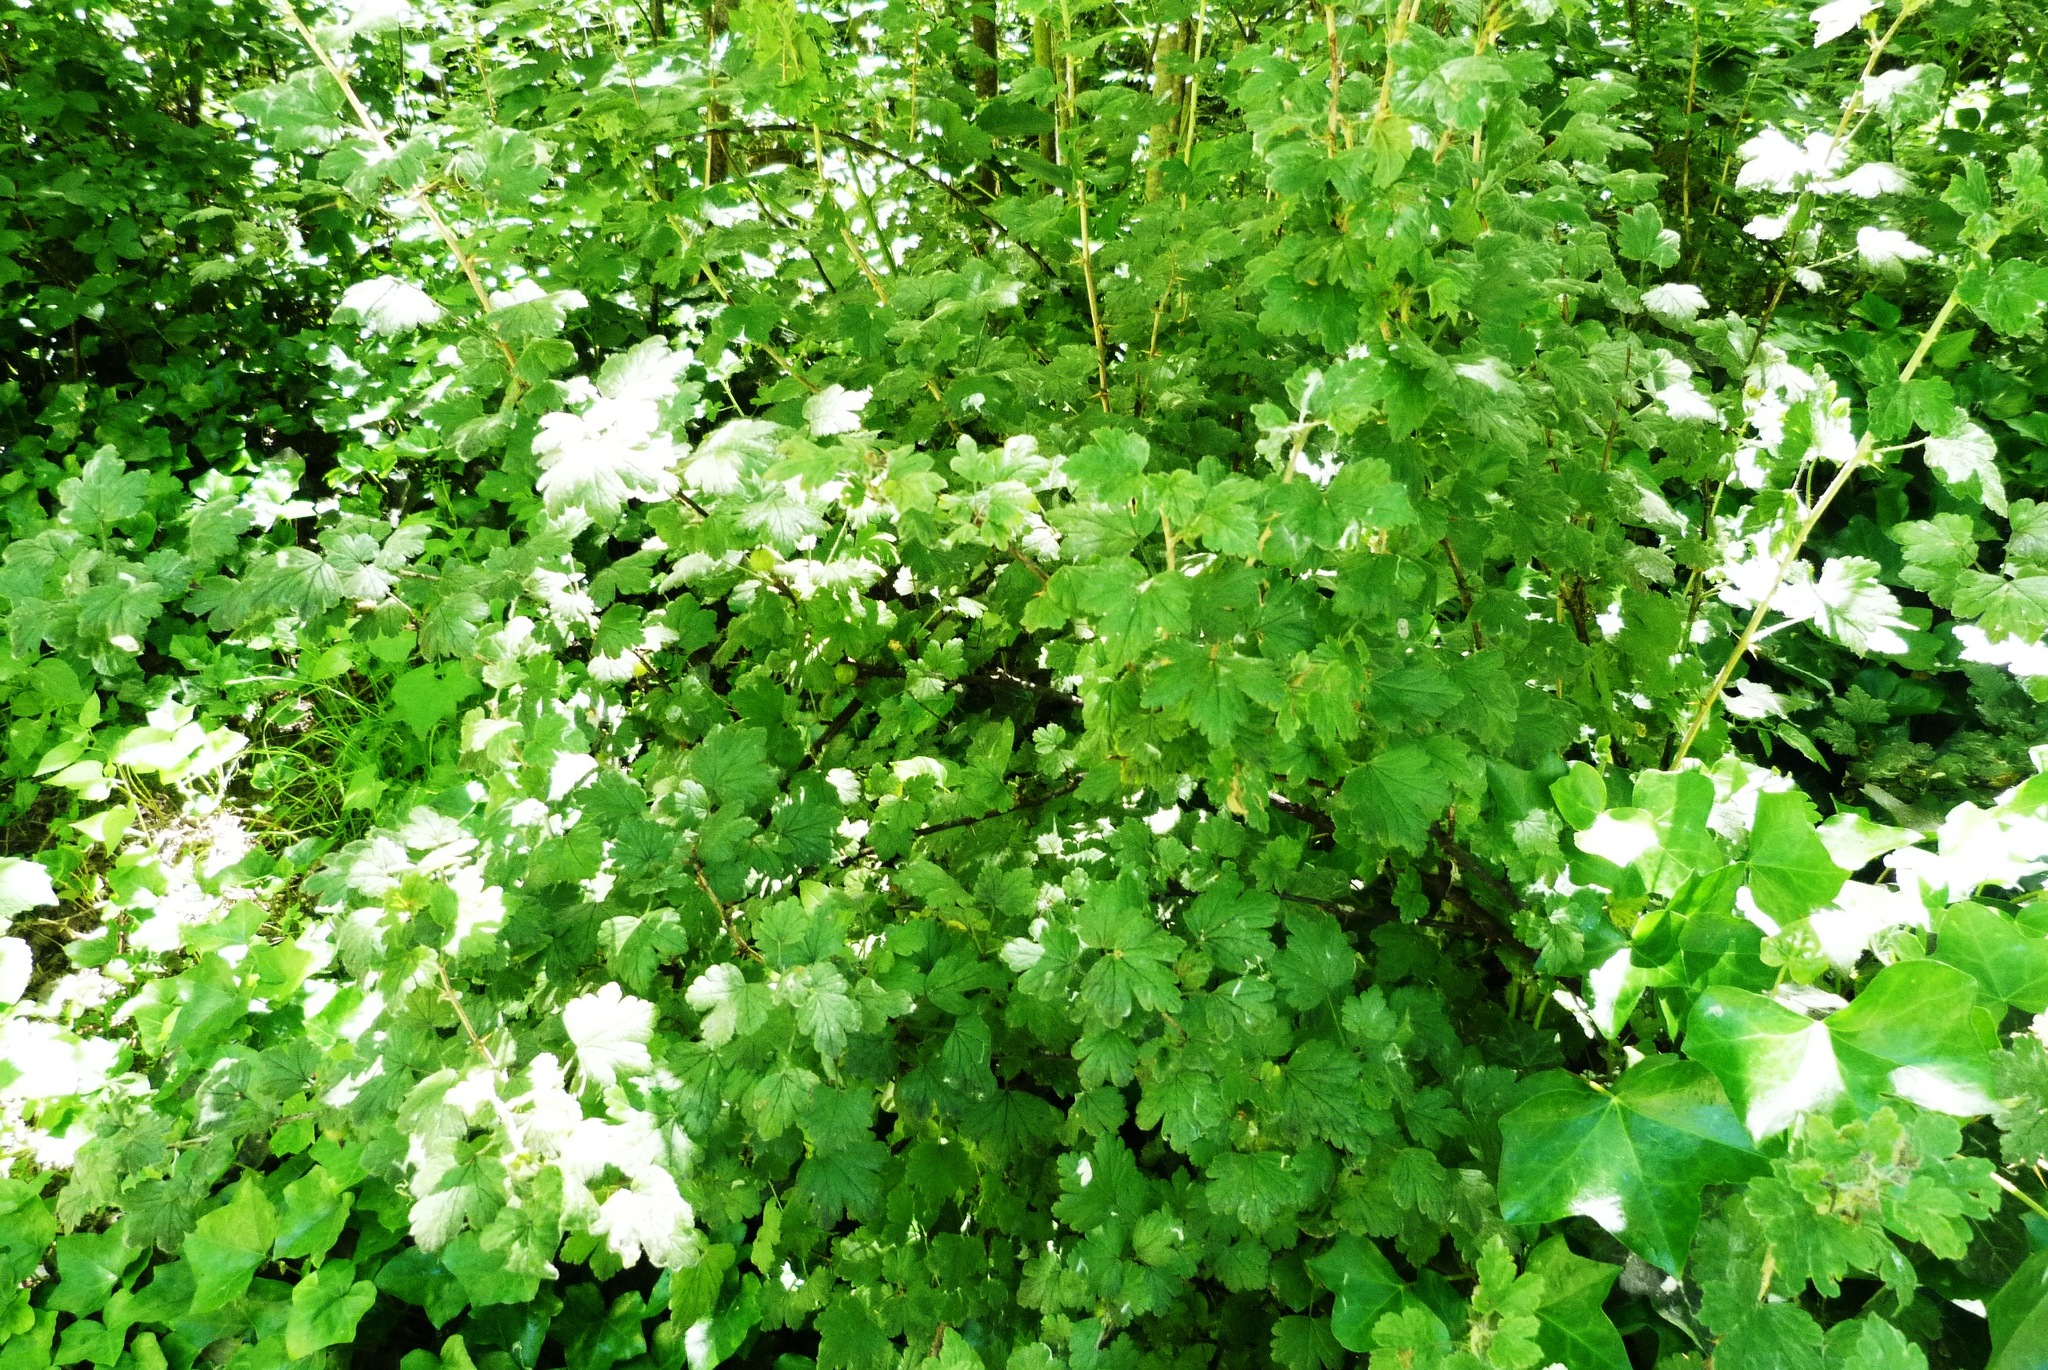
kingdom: Plantae
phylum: Tracheophyta
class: Magnoliopsida
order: Saxifragales
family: Grossulariaceae
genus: Ribes
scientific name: Ribes uva-crispa
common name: Gooseberry
